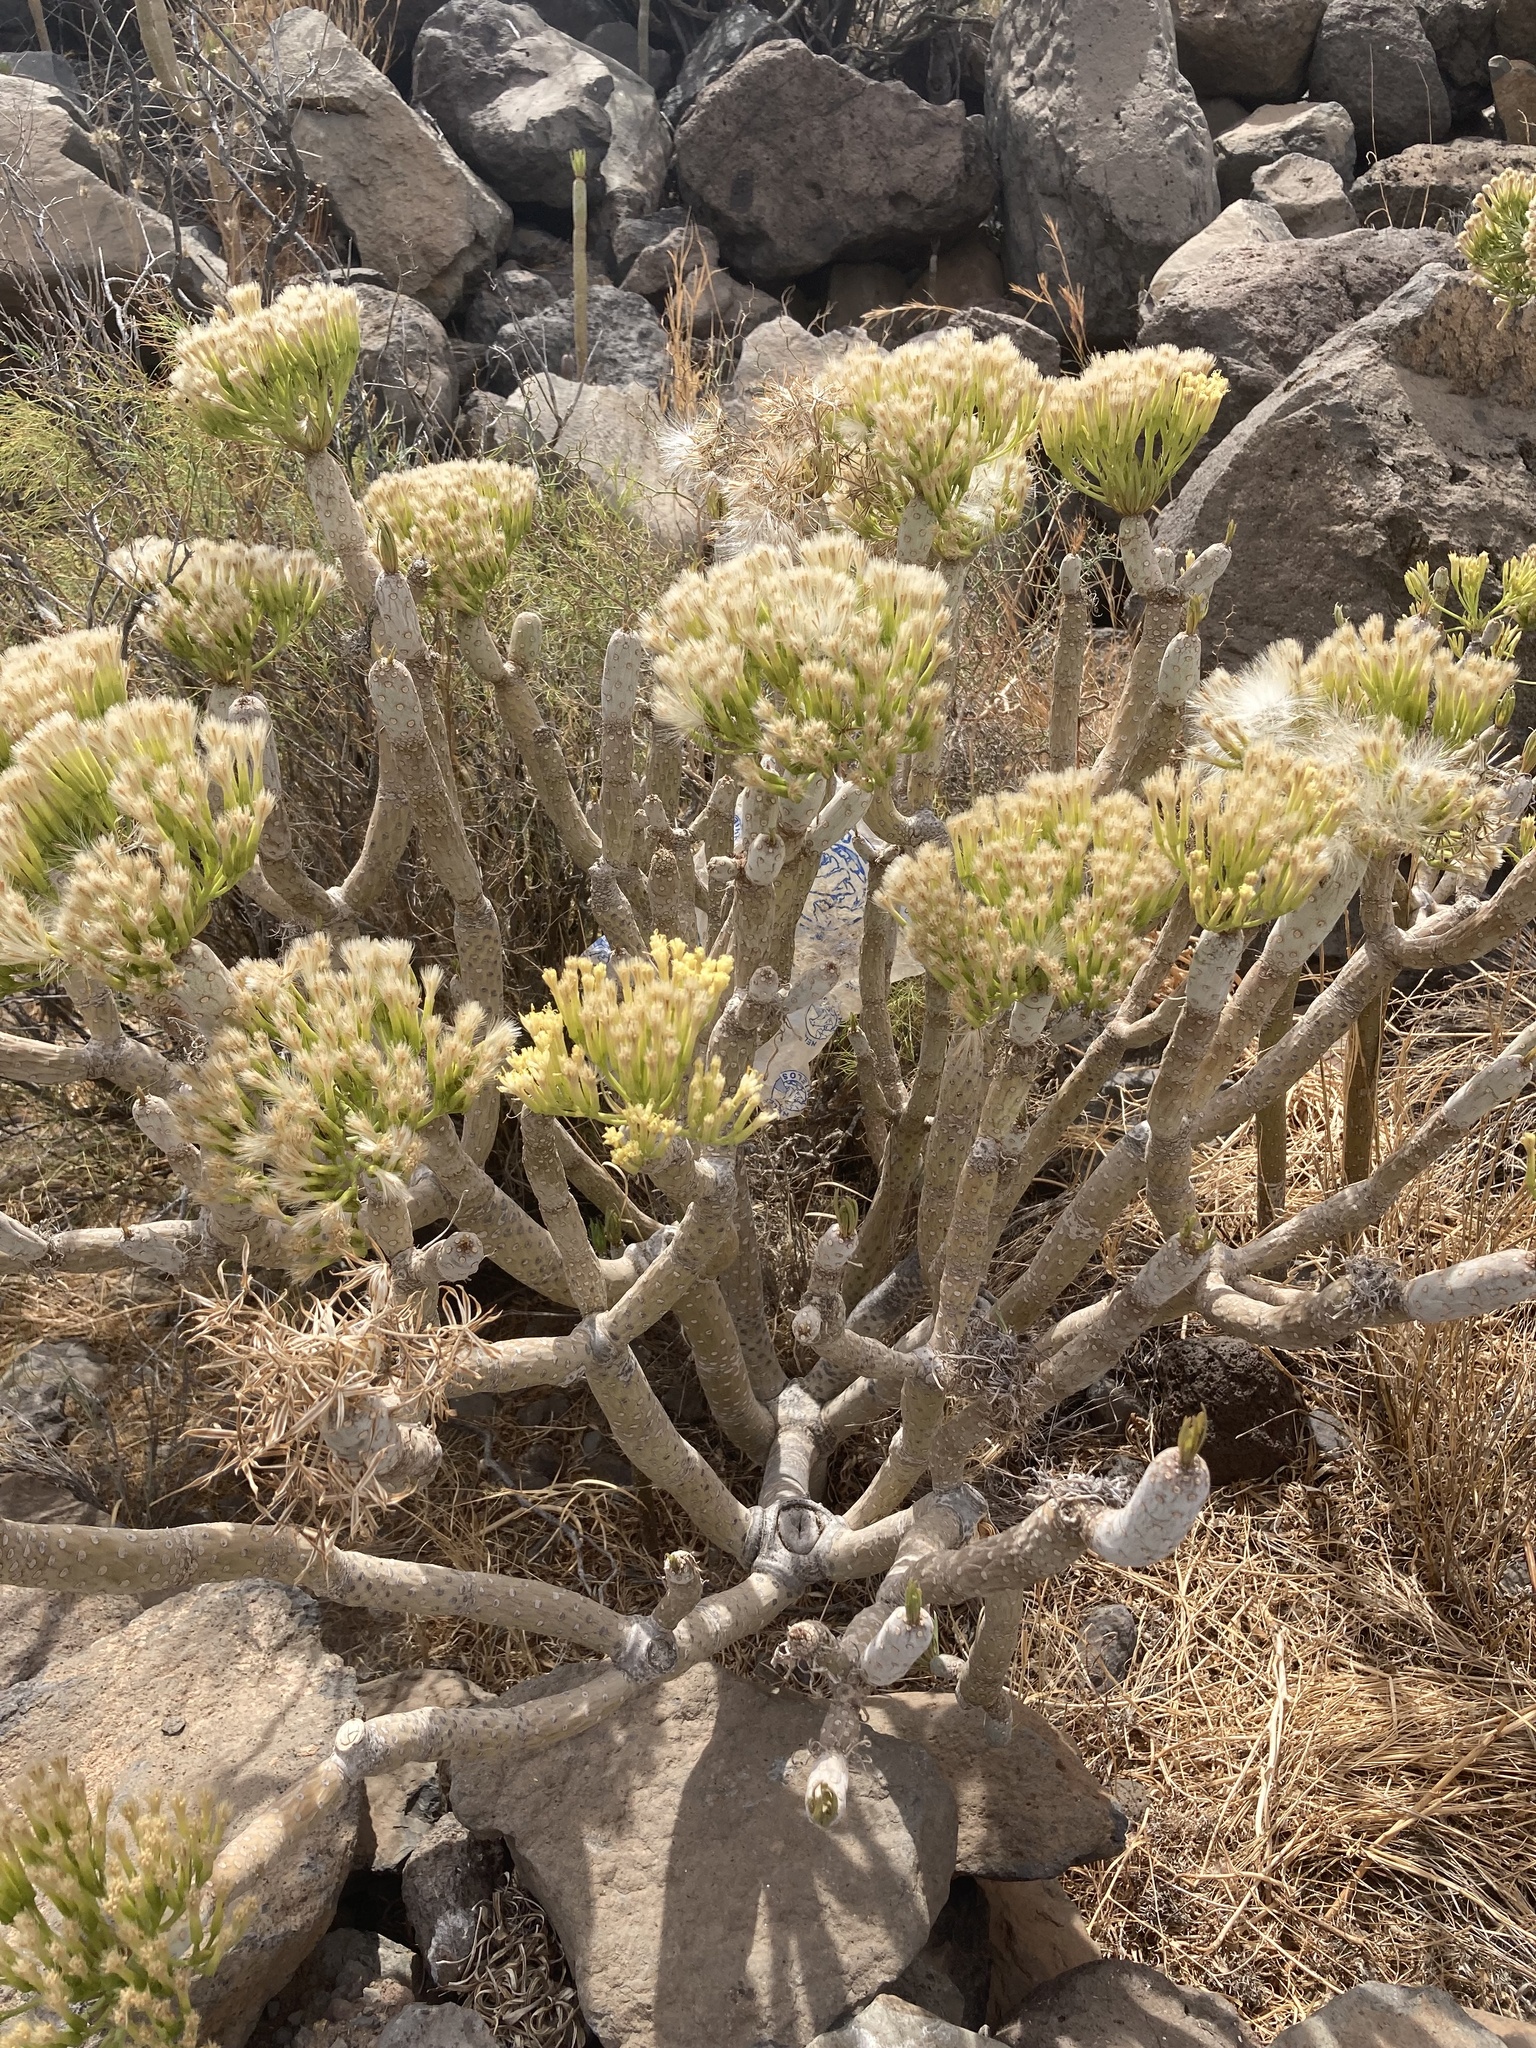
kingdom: Plantae
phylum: Tracheophyta
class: Magnoliopsida
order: Asterales
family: Asteraceae
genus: Kleinia
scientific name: Kleinia neriifolia
